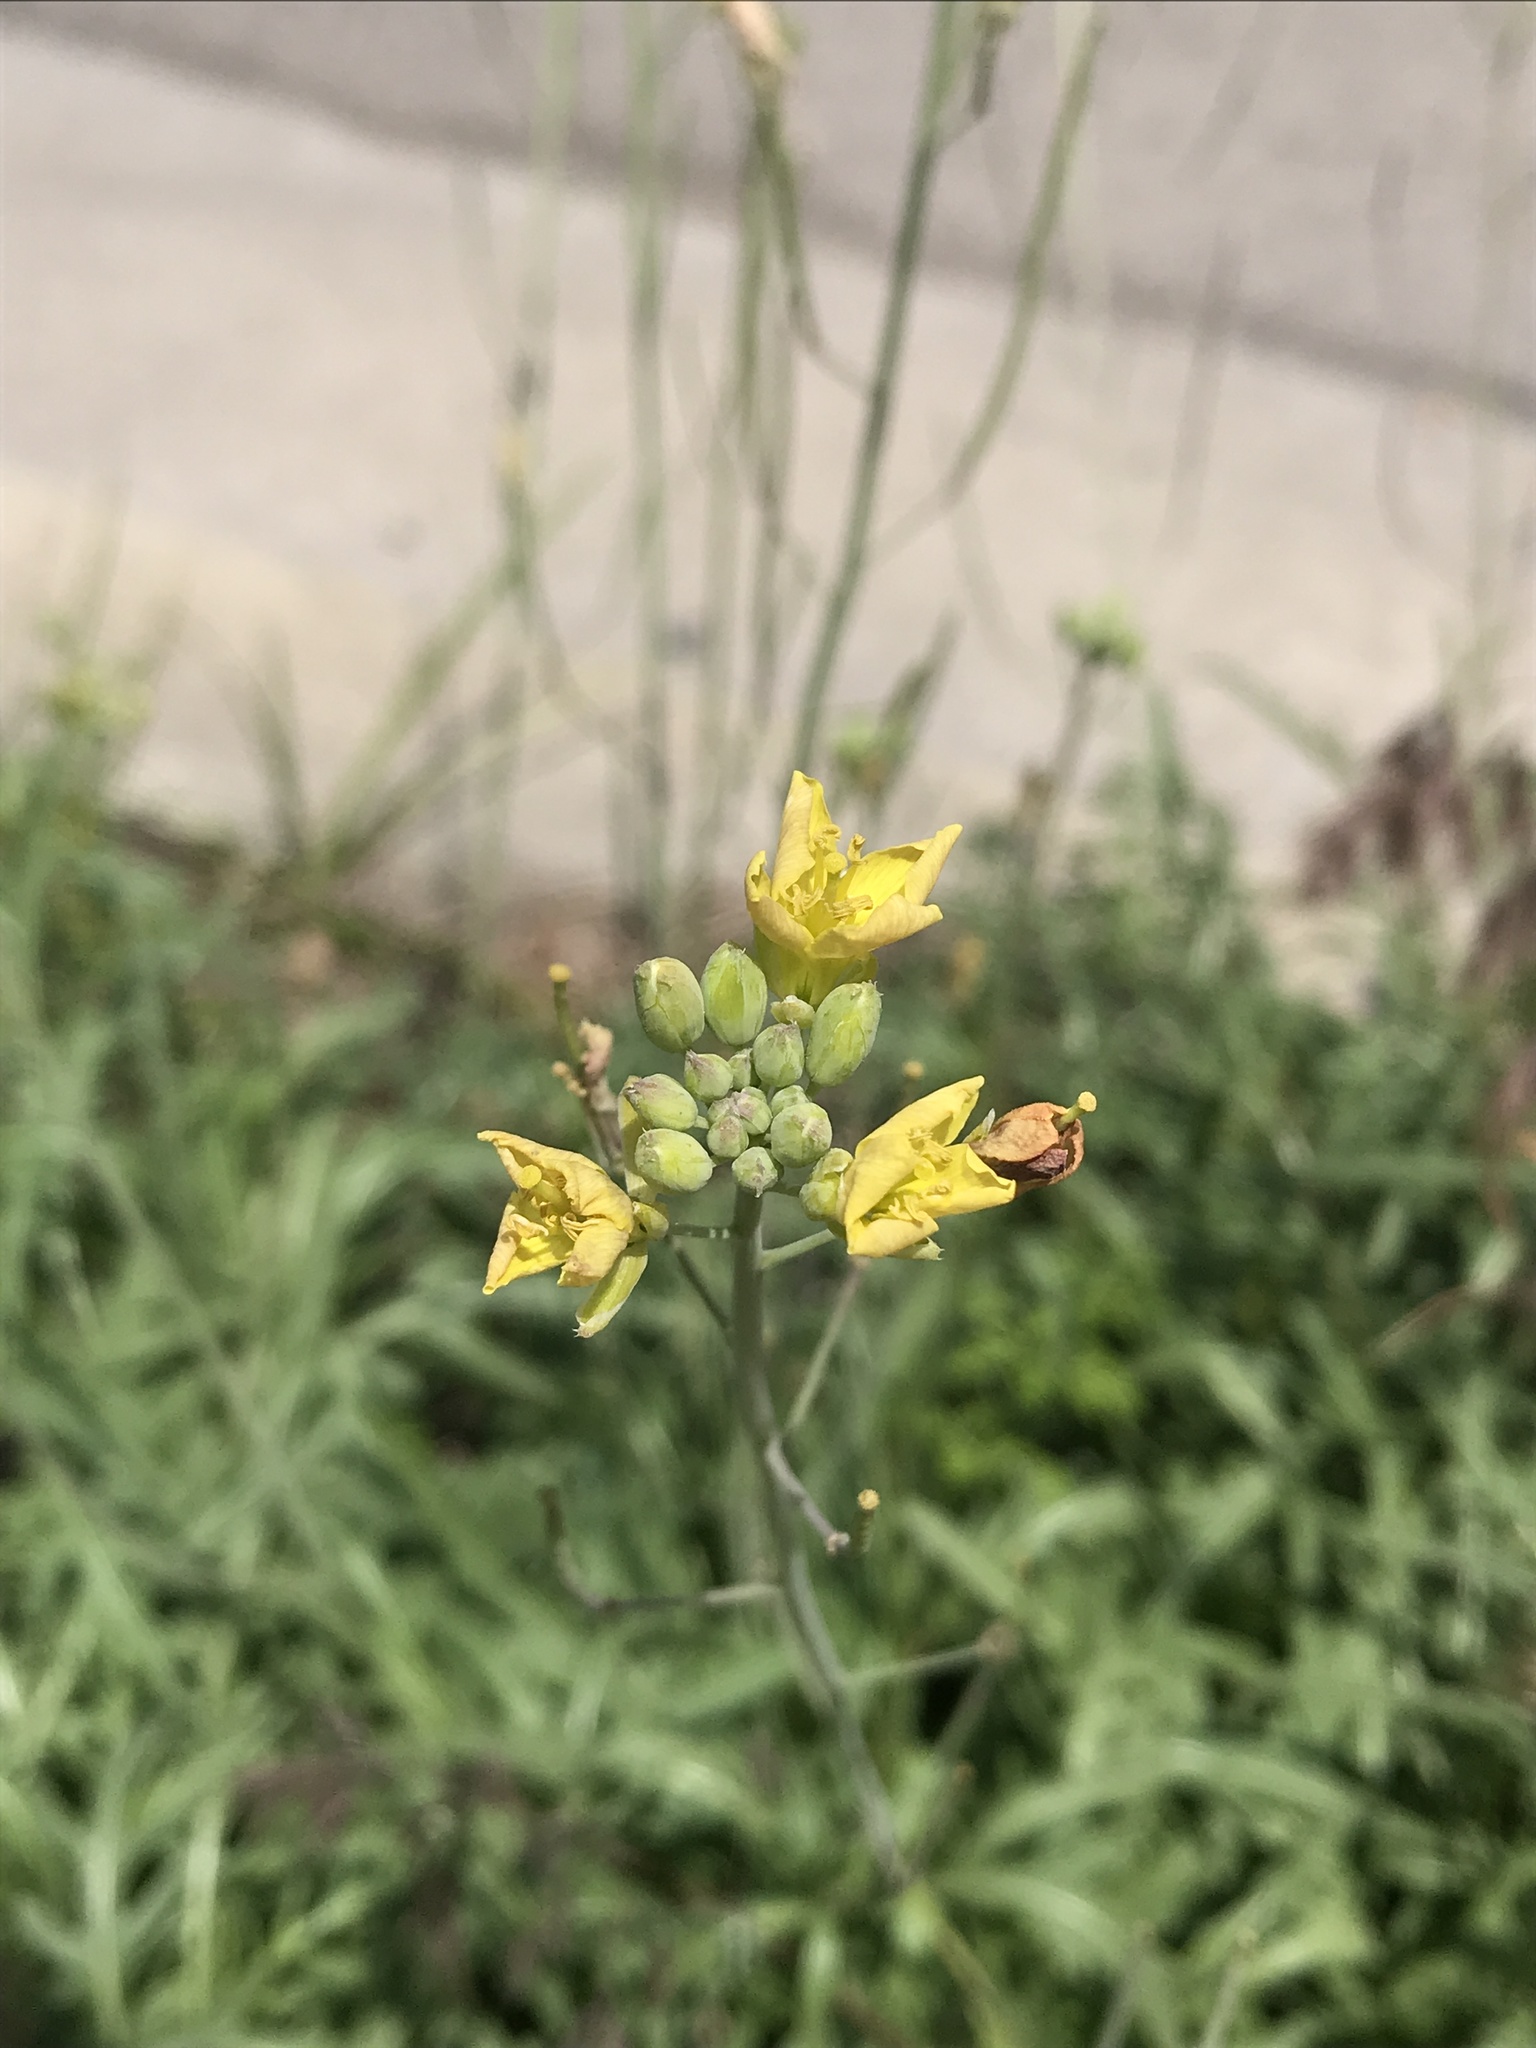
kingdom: Plantae
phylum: Tracheophyta
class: Magnoliopsida
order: Brassicales
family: Brassicaceae
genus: Diplotaxis
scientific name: Diplotaxis tenuifolia
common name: Perennial wall-rocket
